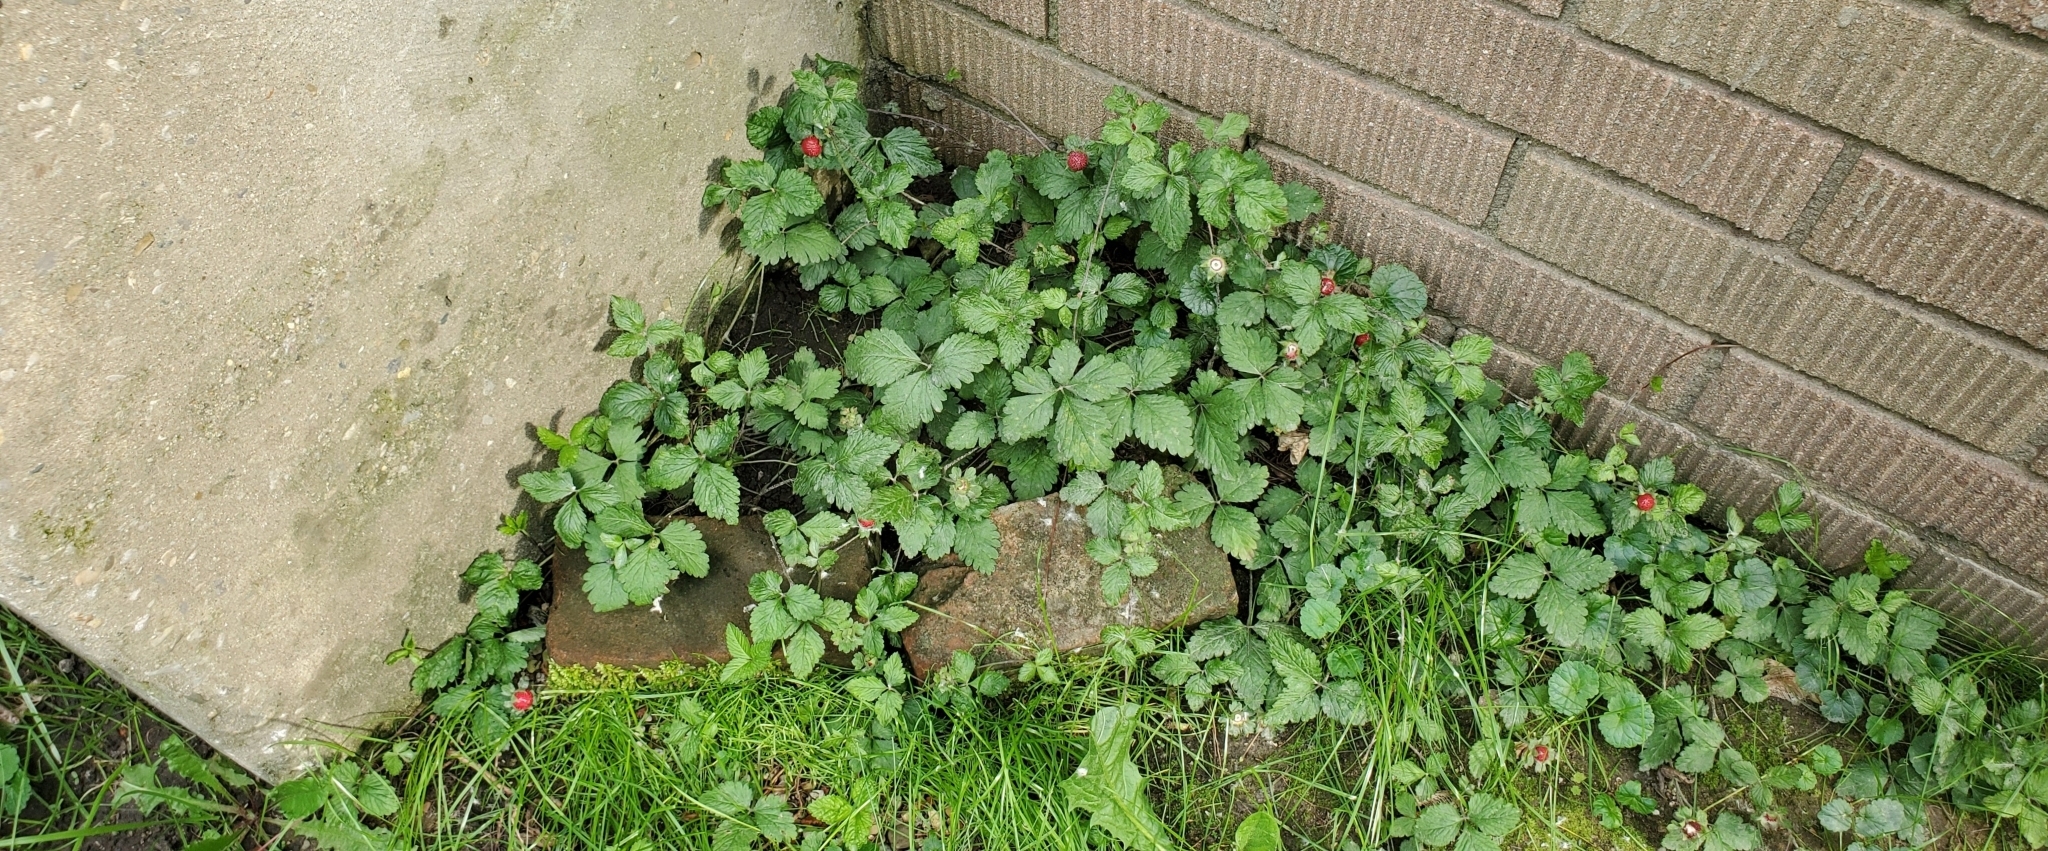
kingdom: Plantae
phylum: Tracheophyta
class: Magnoliopsida
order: Rosales
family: Rosaceae
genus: Potentilla
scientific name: Potentilla indica
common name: Yellow-flowered strawberry
